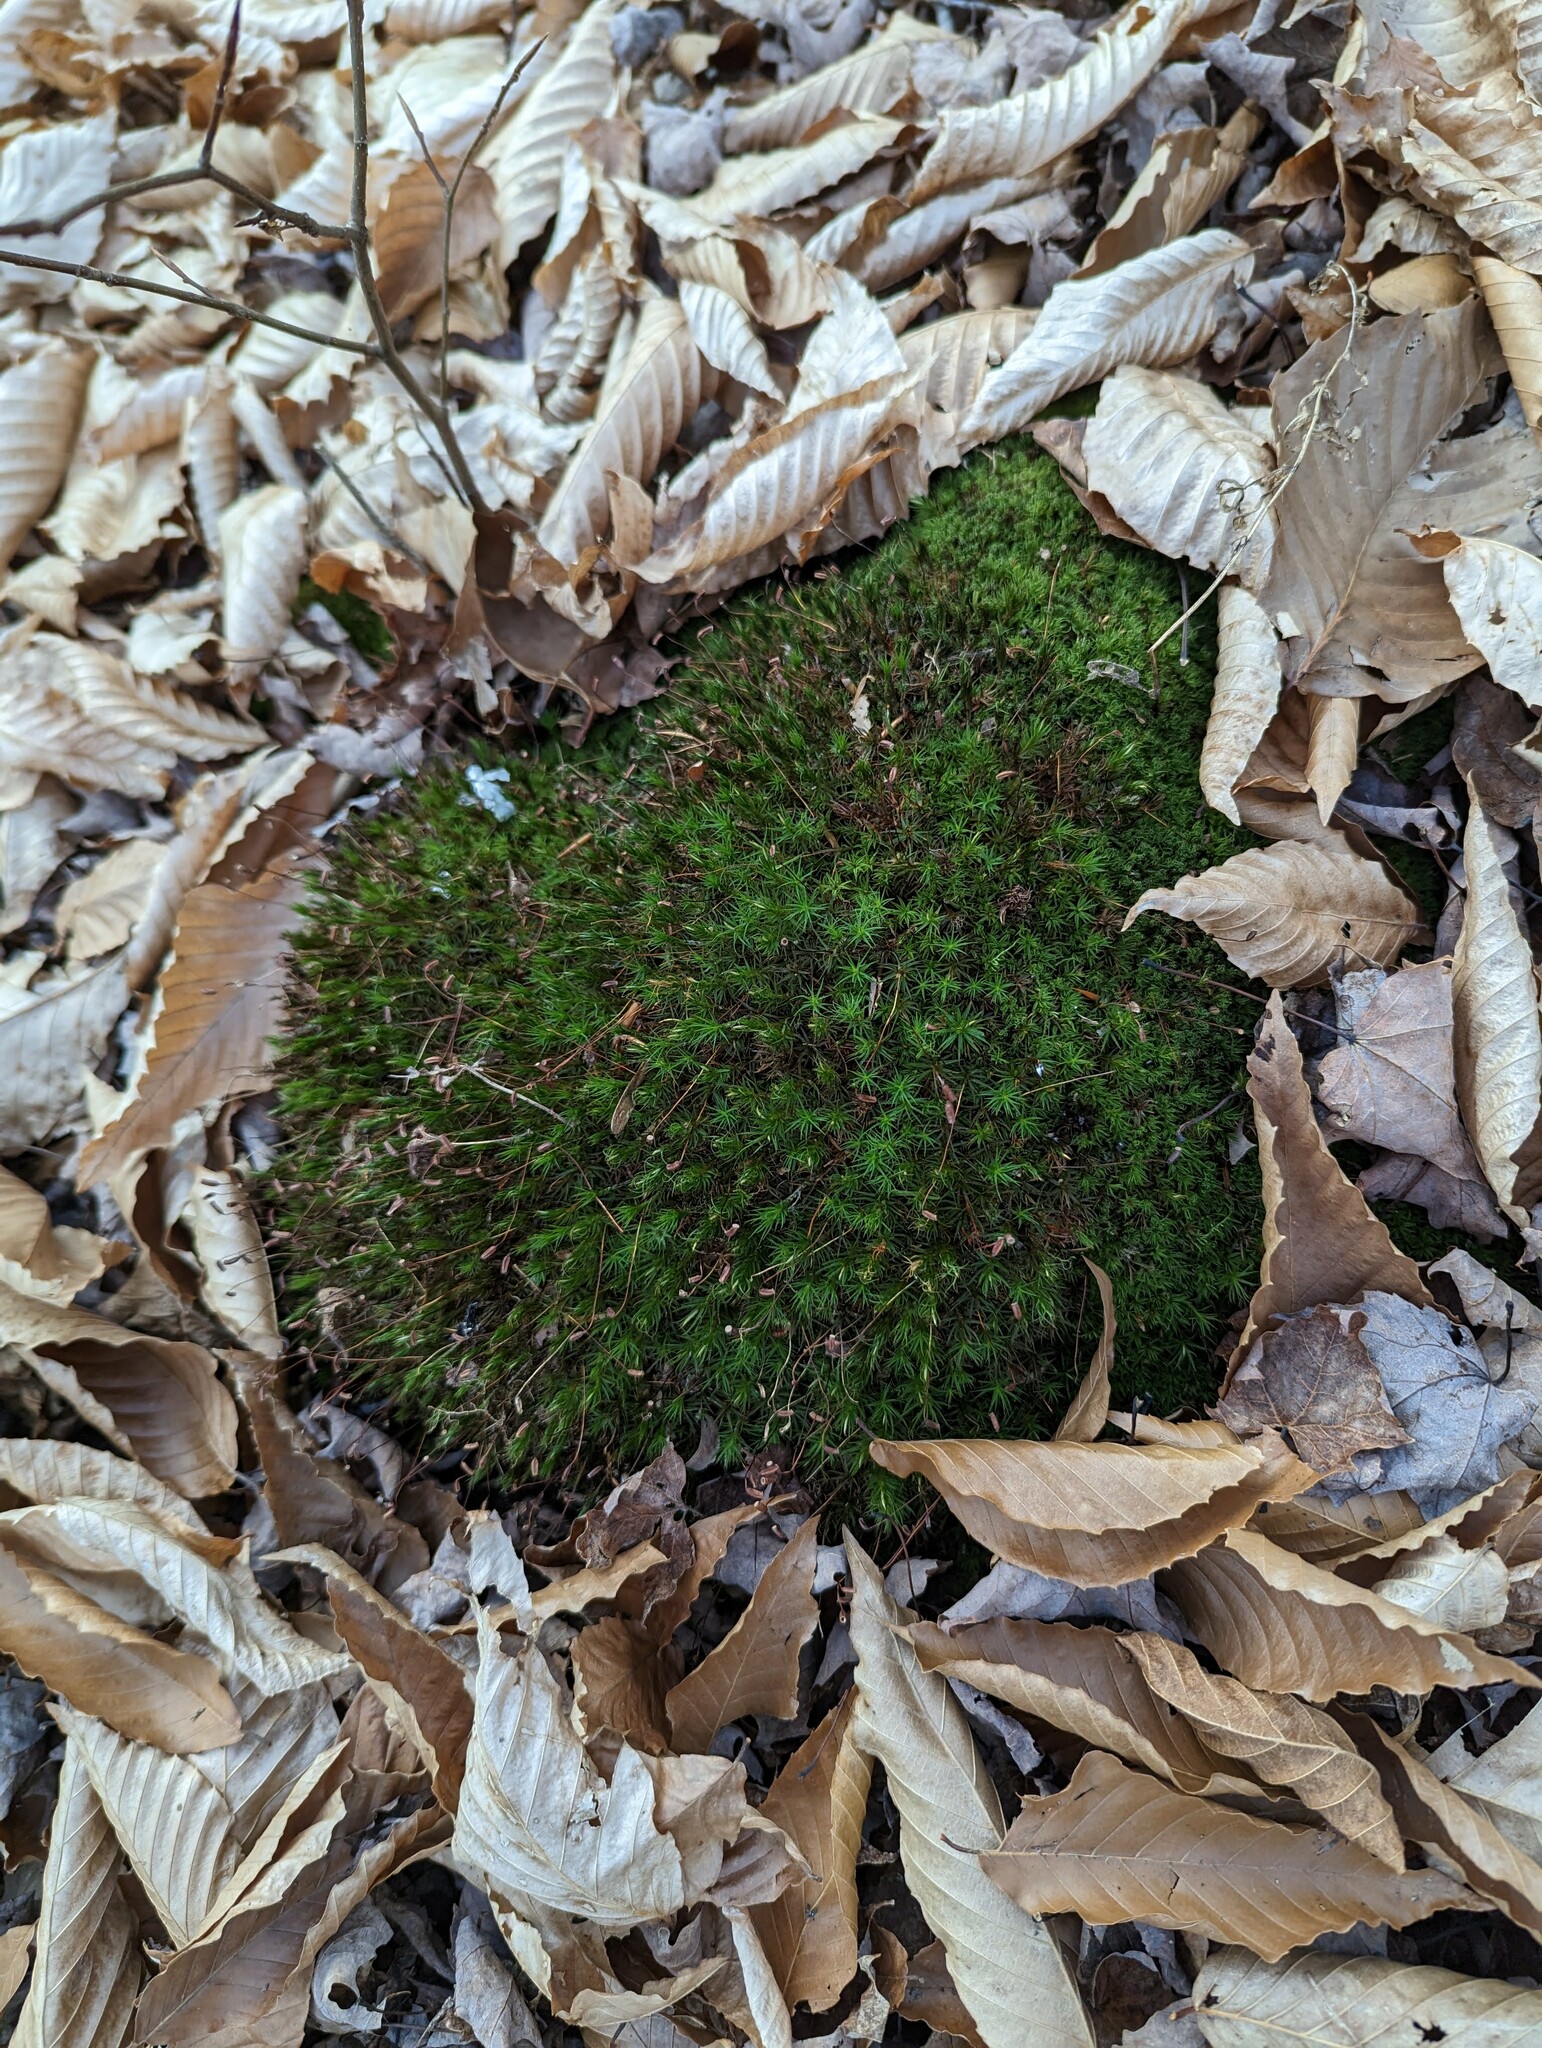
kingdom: Plantae
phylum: Tracheophyta
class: Magnoliopsida
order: Fagales
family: Fagaceae
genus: Fagus
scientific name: Fagus grandifolia
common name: American beech
